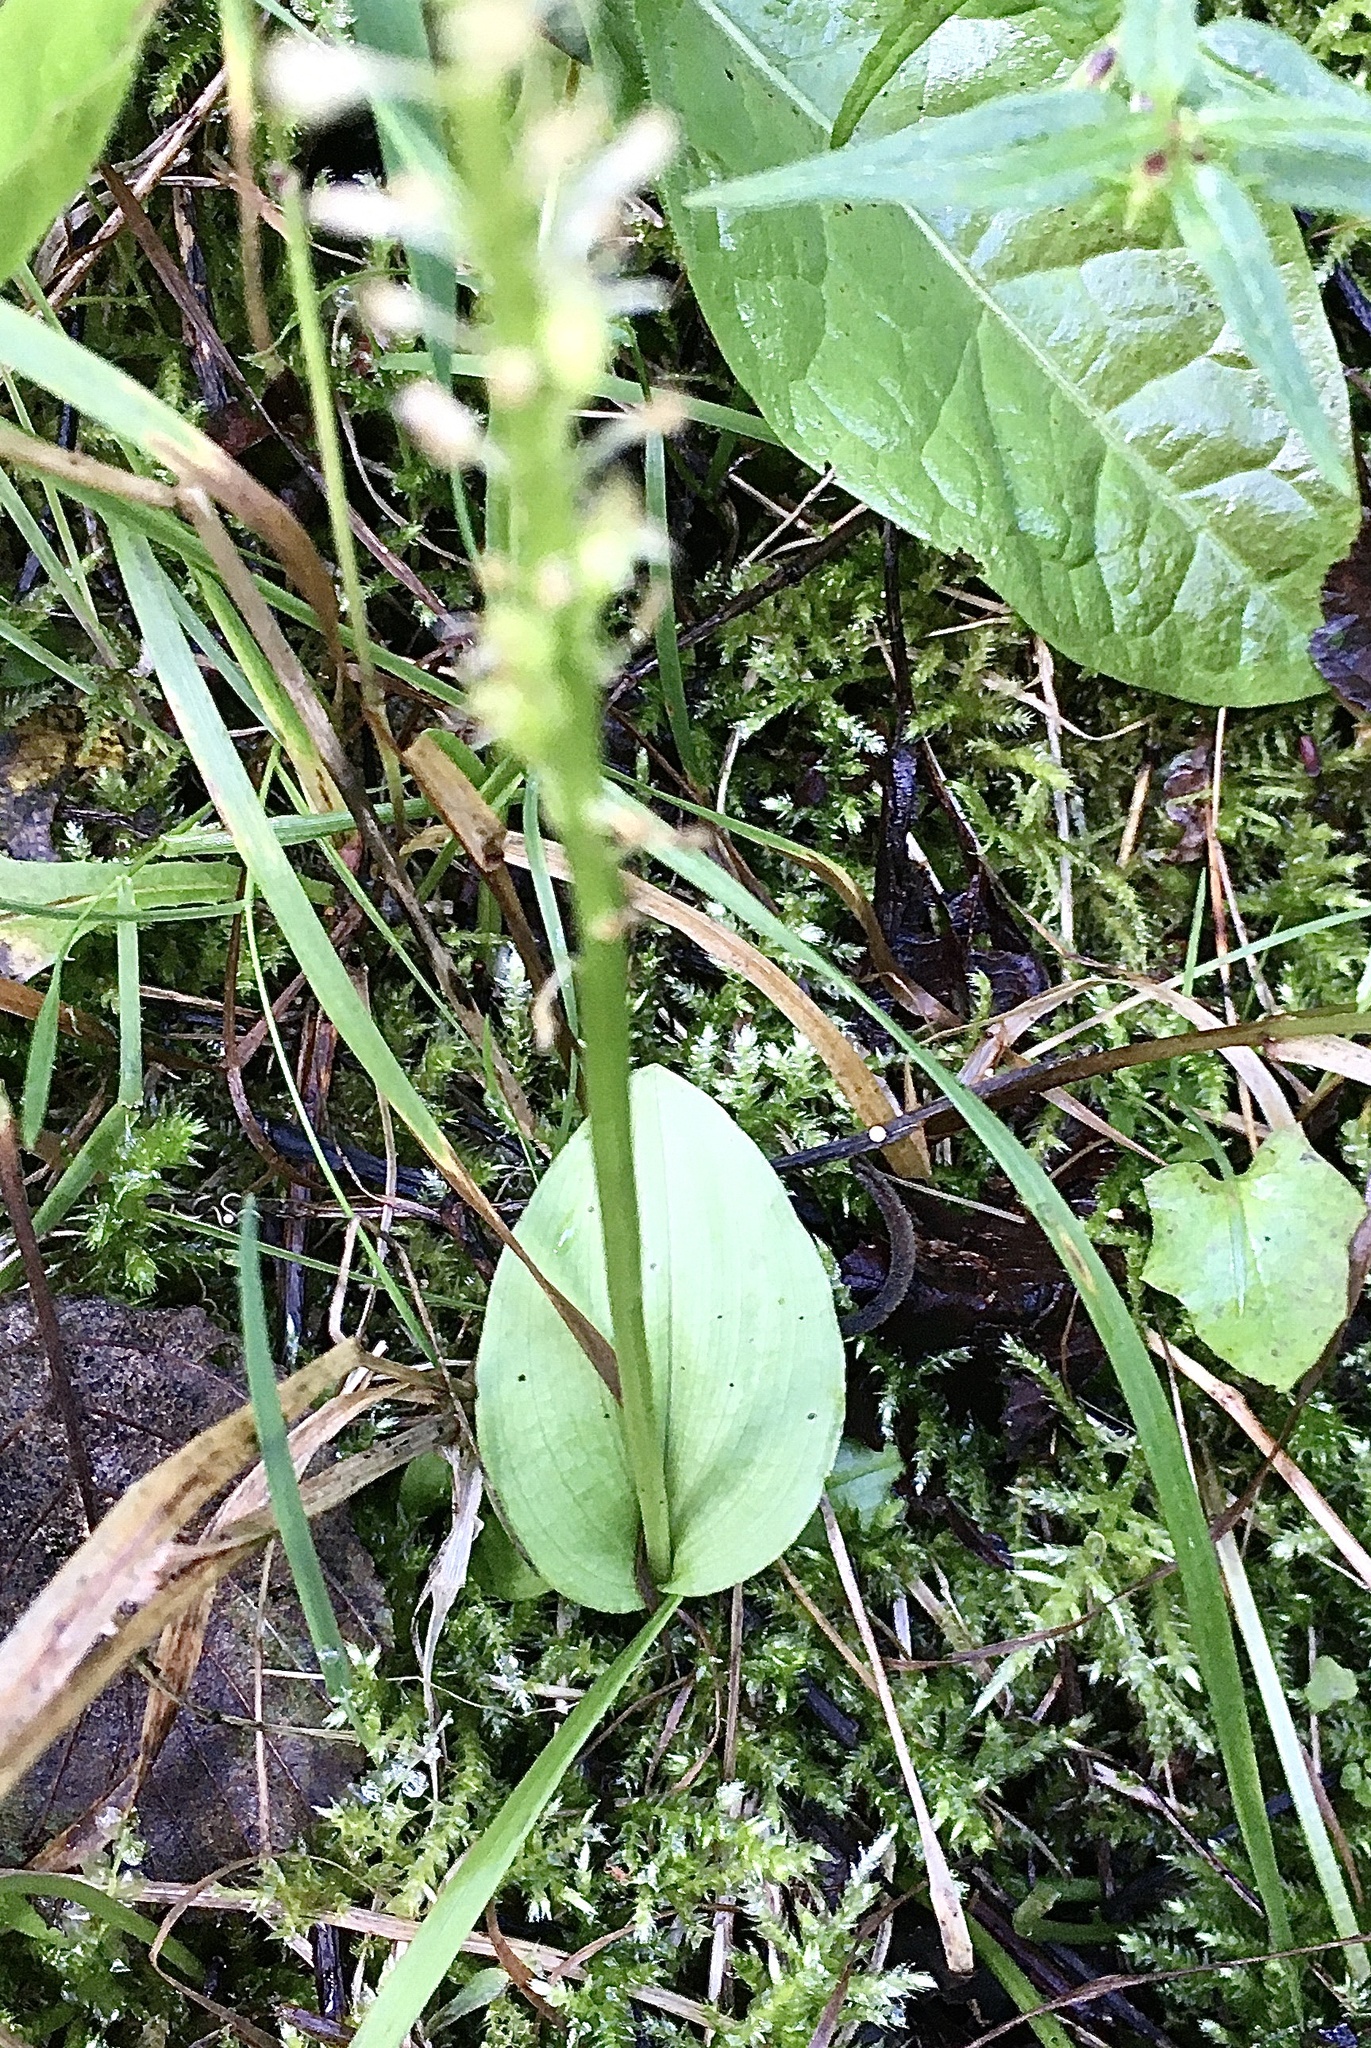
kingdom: Plantae
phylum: Tracheophyta
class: Liliopsida
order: Asparagales
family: Orchidaceae
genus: Malaxis
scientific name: Malaxis monophyllos
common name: White adder's-mouth
